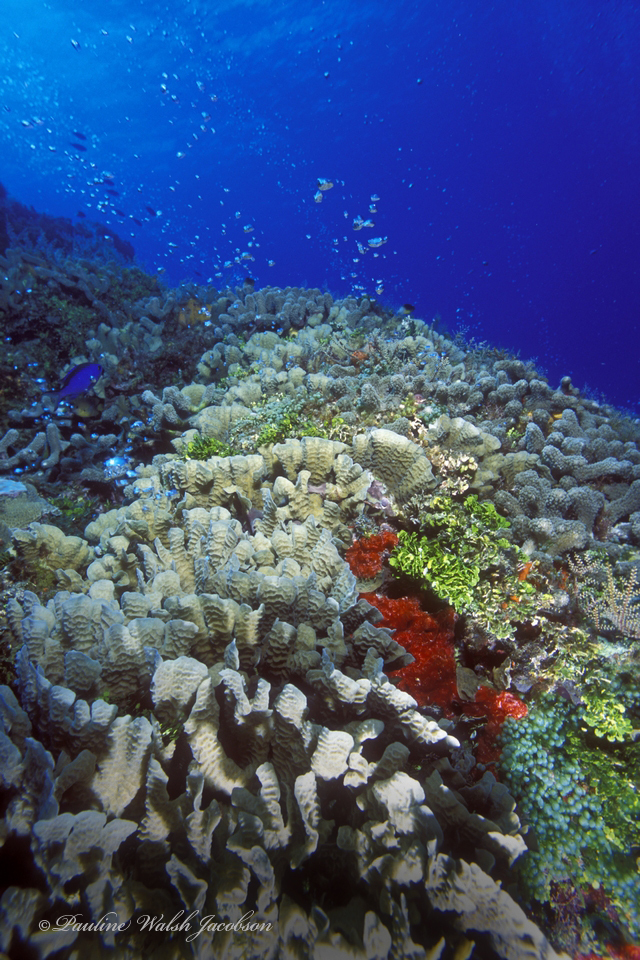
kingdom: Animalia
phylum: Cnidaria
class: Anthozoa
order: Scleractinia
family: Agariciidae
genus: Agaricia
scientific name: Agaricia tenuifolia
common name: Thin leaf lettuce coral
